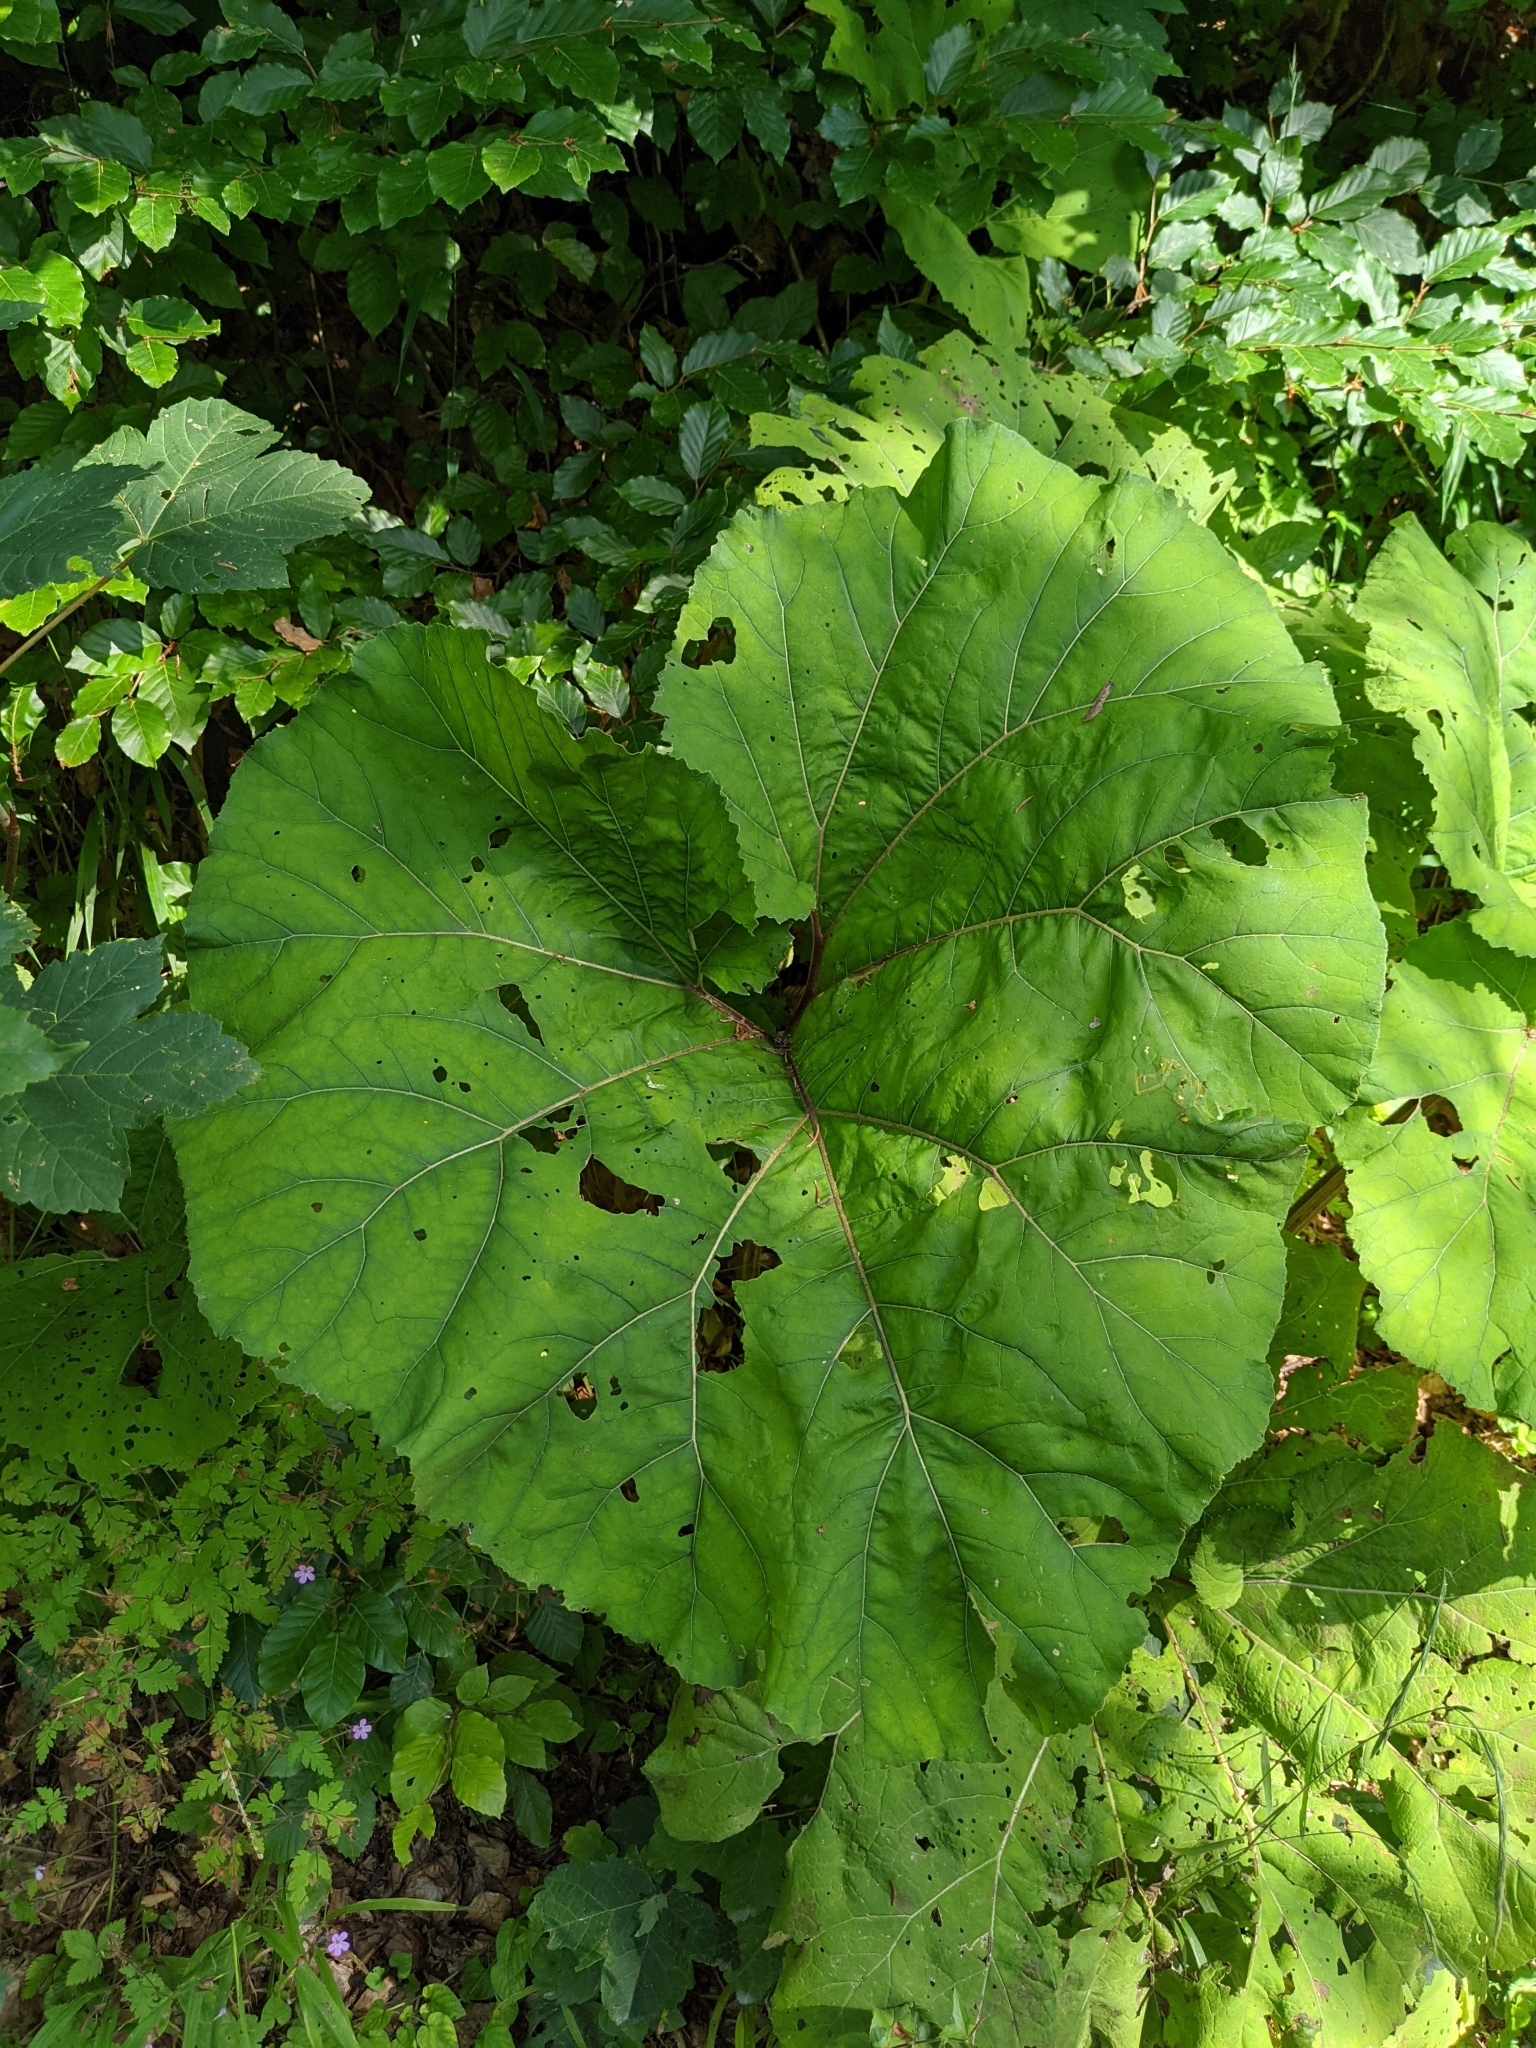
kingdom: Plantae
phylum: Tracheophyta
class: Magnoliopsida
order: Asterales
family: Asteraceae
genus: Petasites
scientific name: Petasites hybridus
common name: Butterbur
